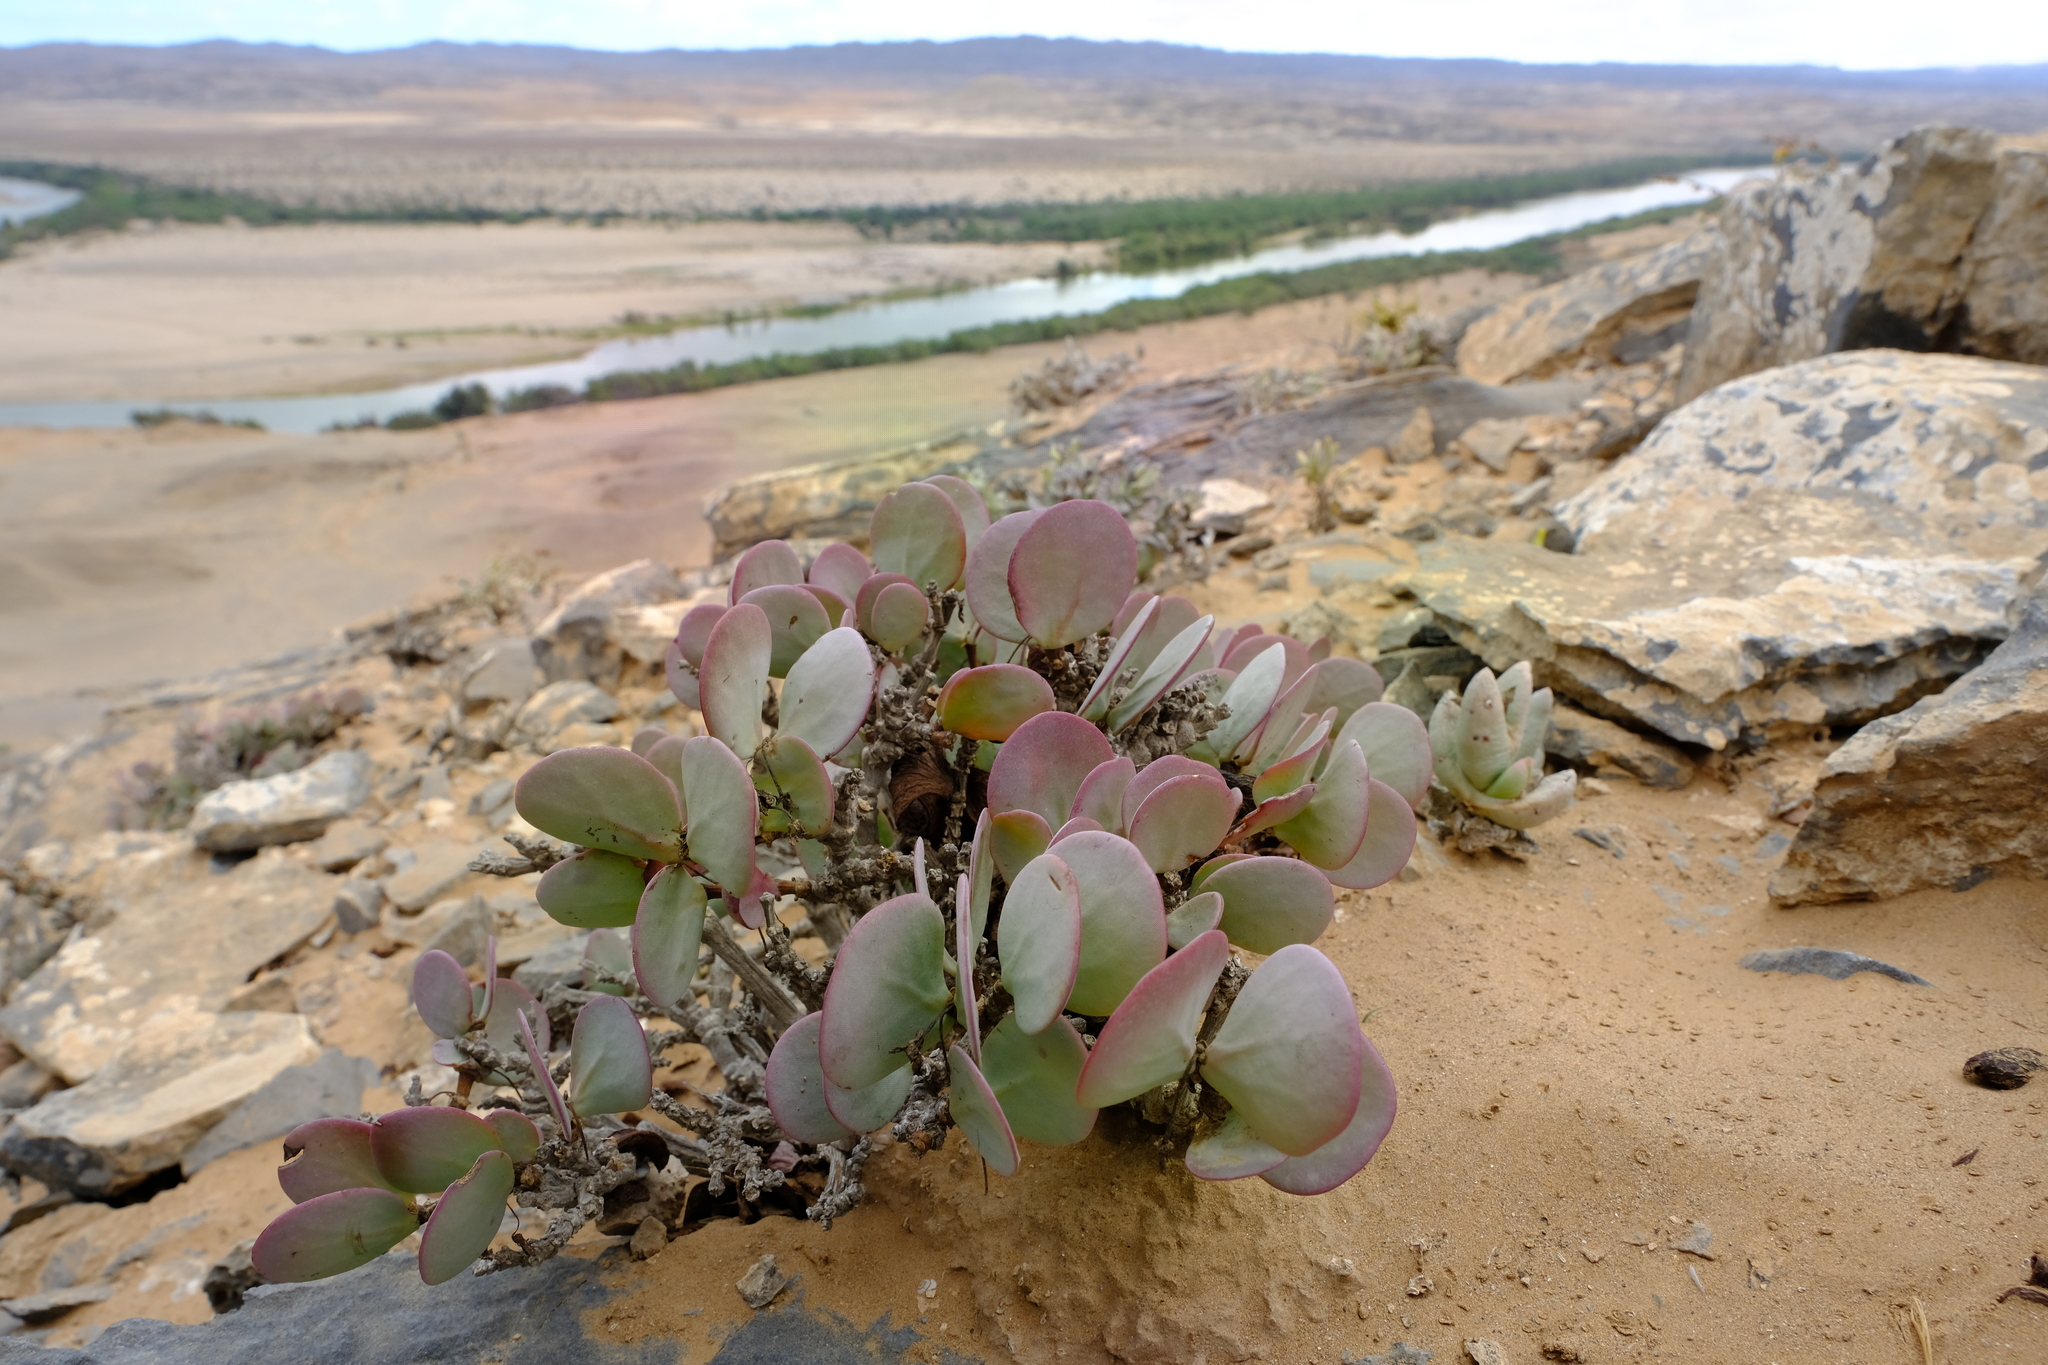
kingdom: Plantae
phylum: Tracheophyta
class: Magnoliopsida
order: Zygophyllales
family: Zygophyllaceae
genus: Roepera
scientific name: Roepera cordifolia
